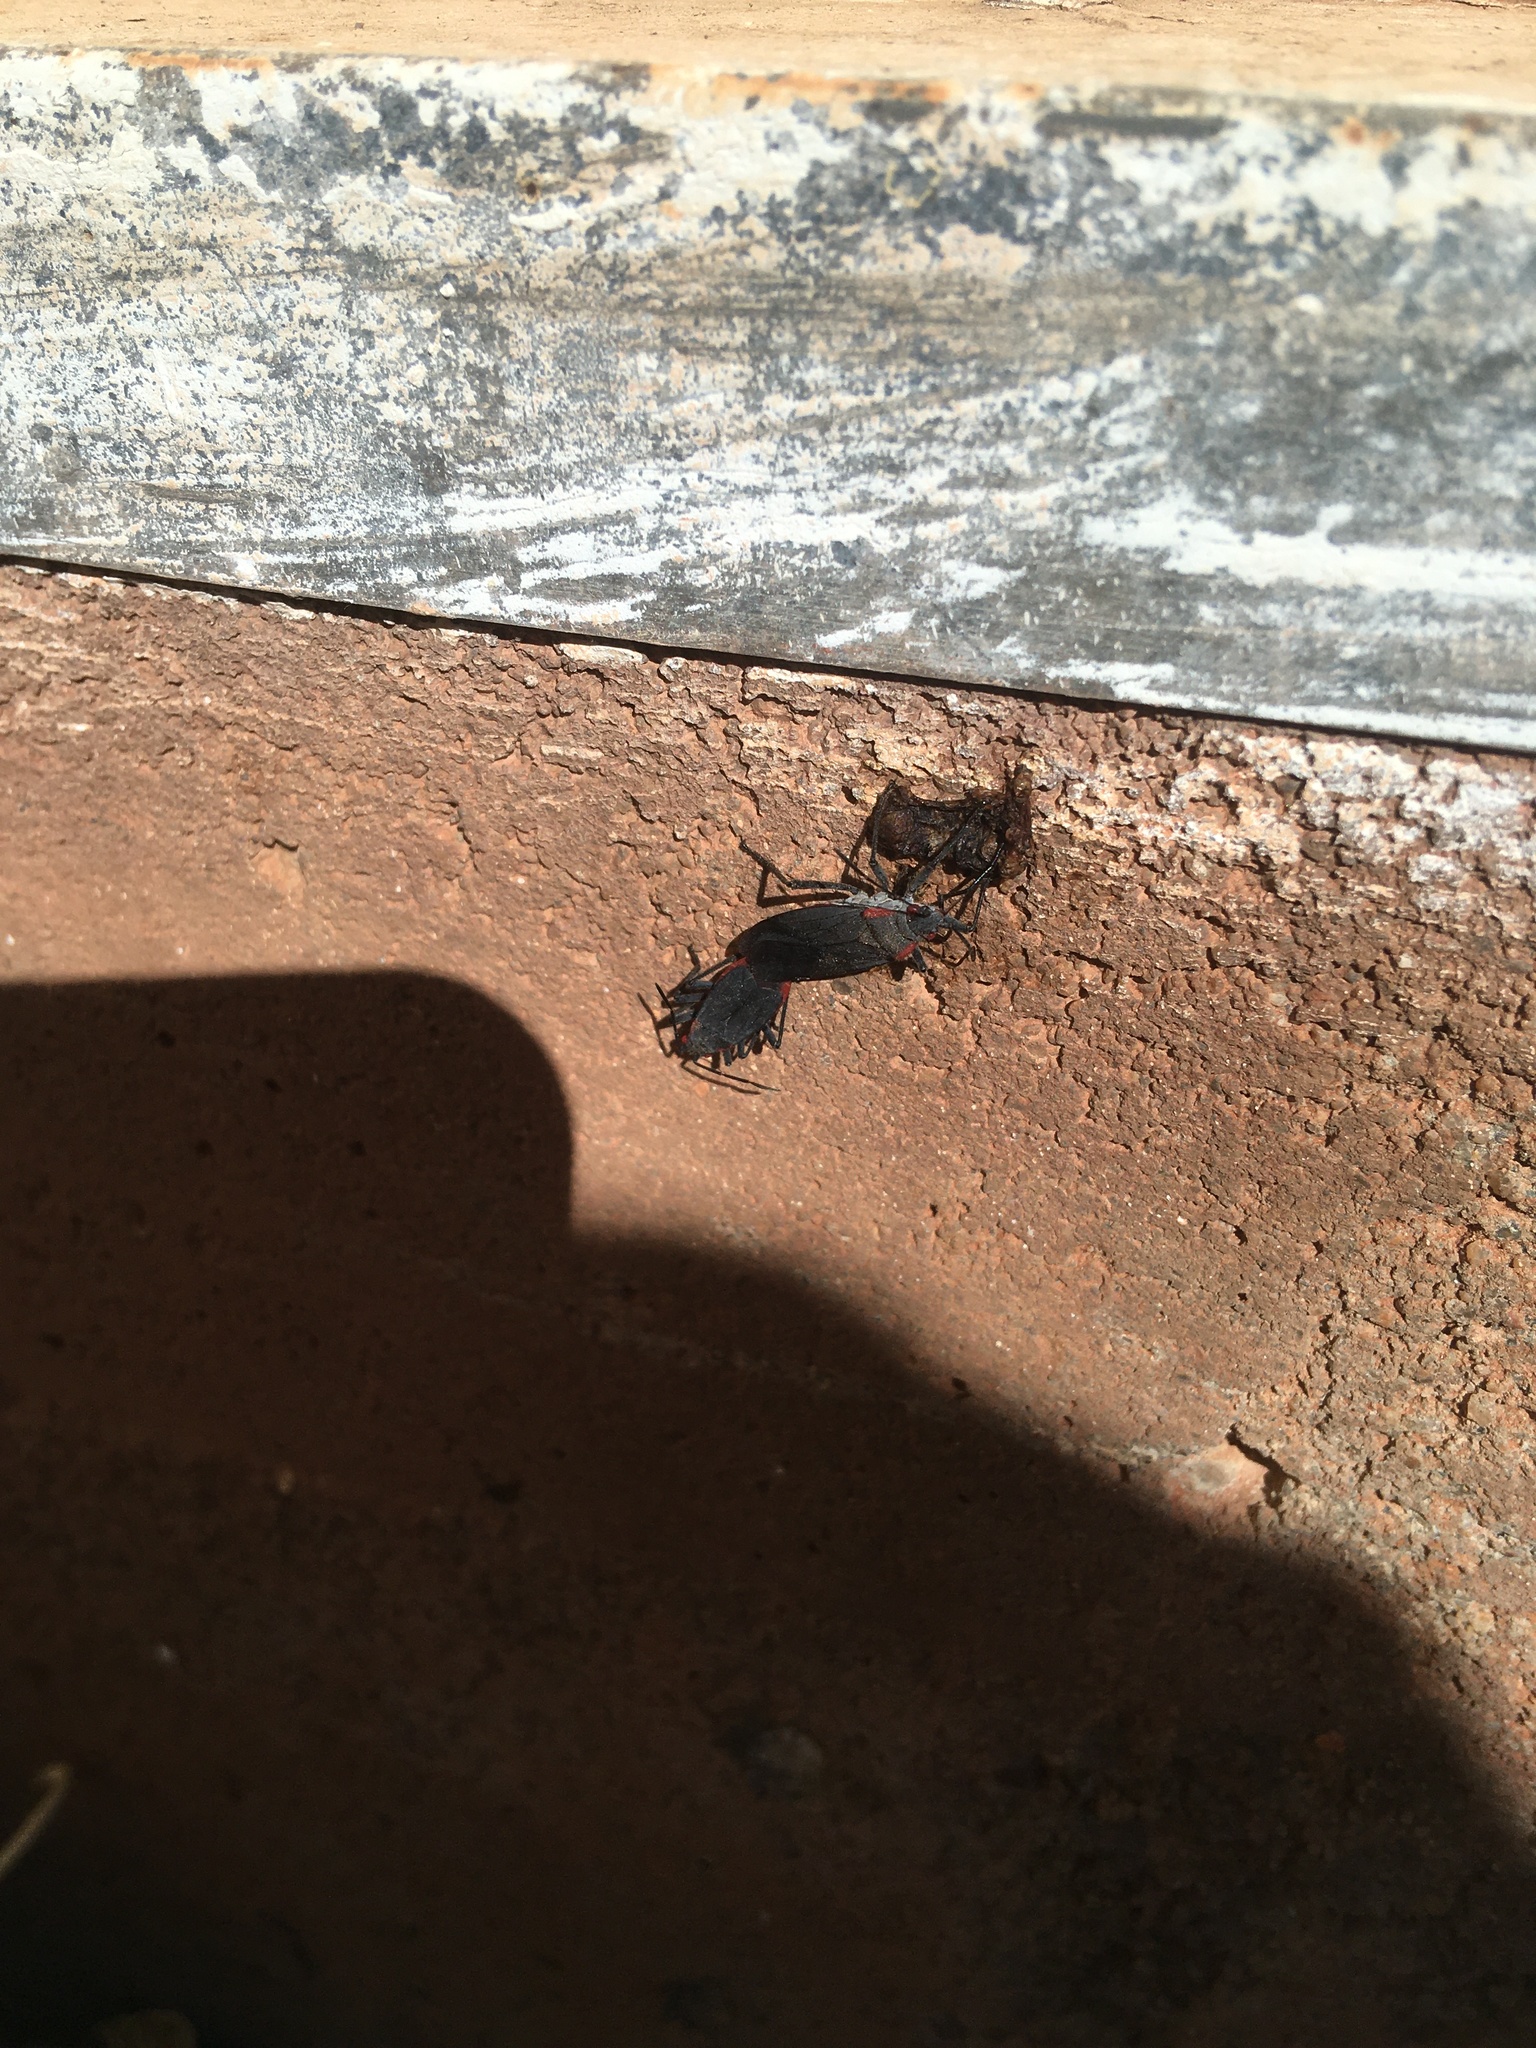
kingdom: Animalia
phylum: Arthropoda
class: Insecta
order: Hemiptera
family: Rhopalidae
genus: Jadera
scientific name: Jadera haematoloma
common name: Red-shouldered bug
